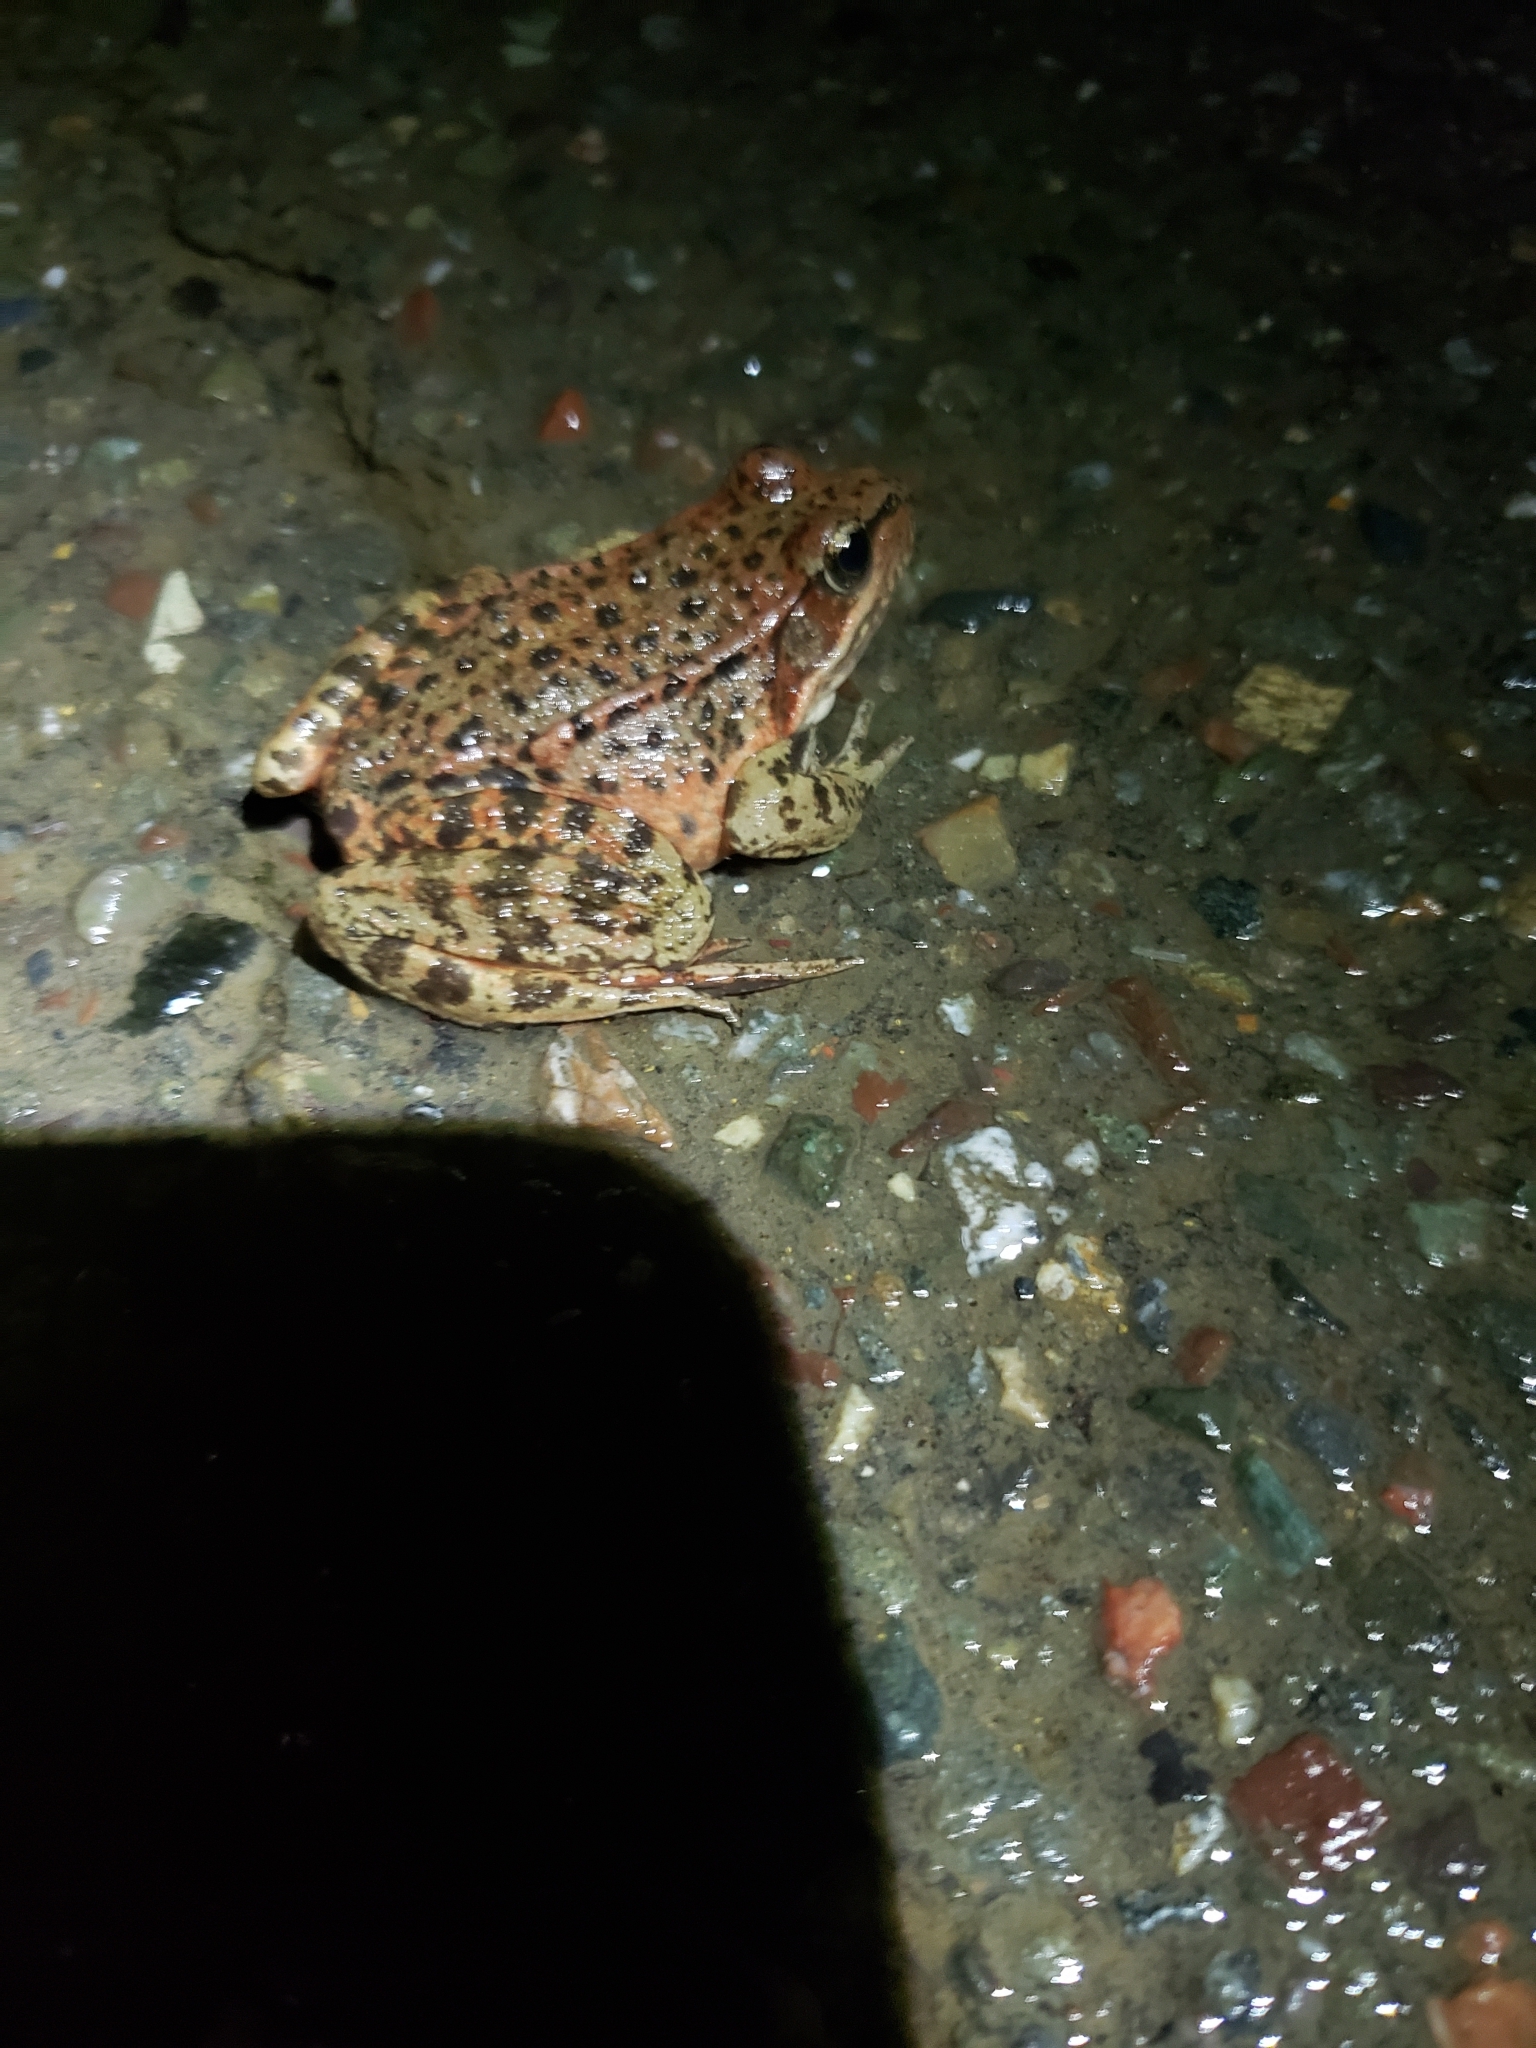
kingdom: Animalia
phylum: Chordata
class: Amphibia
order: Anura
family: Ranidae
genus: Rana
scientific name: Rana draytonii
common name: California red-legged frog
